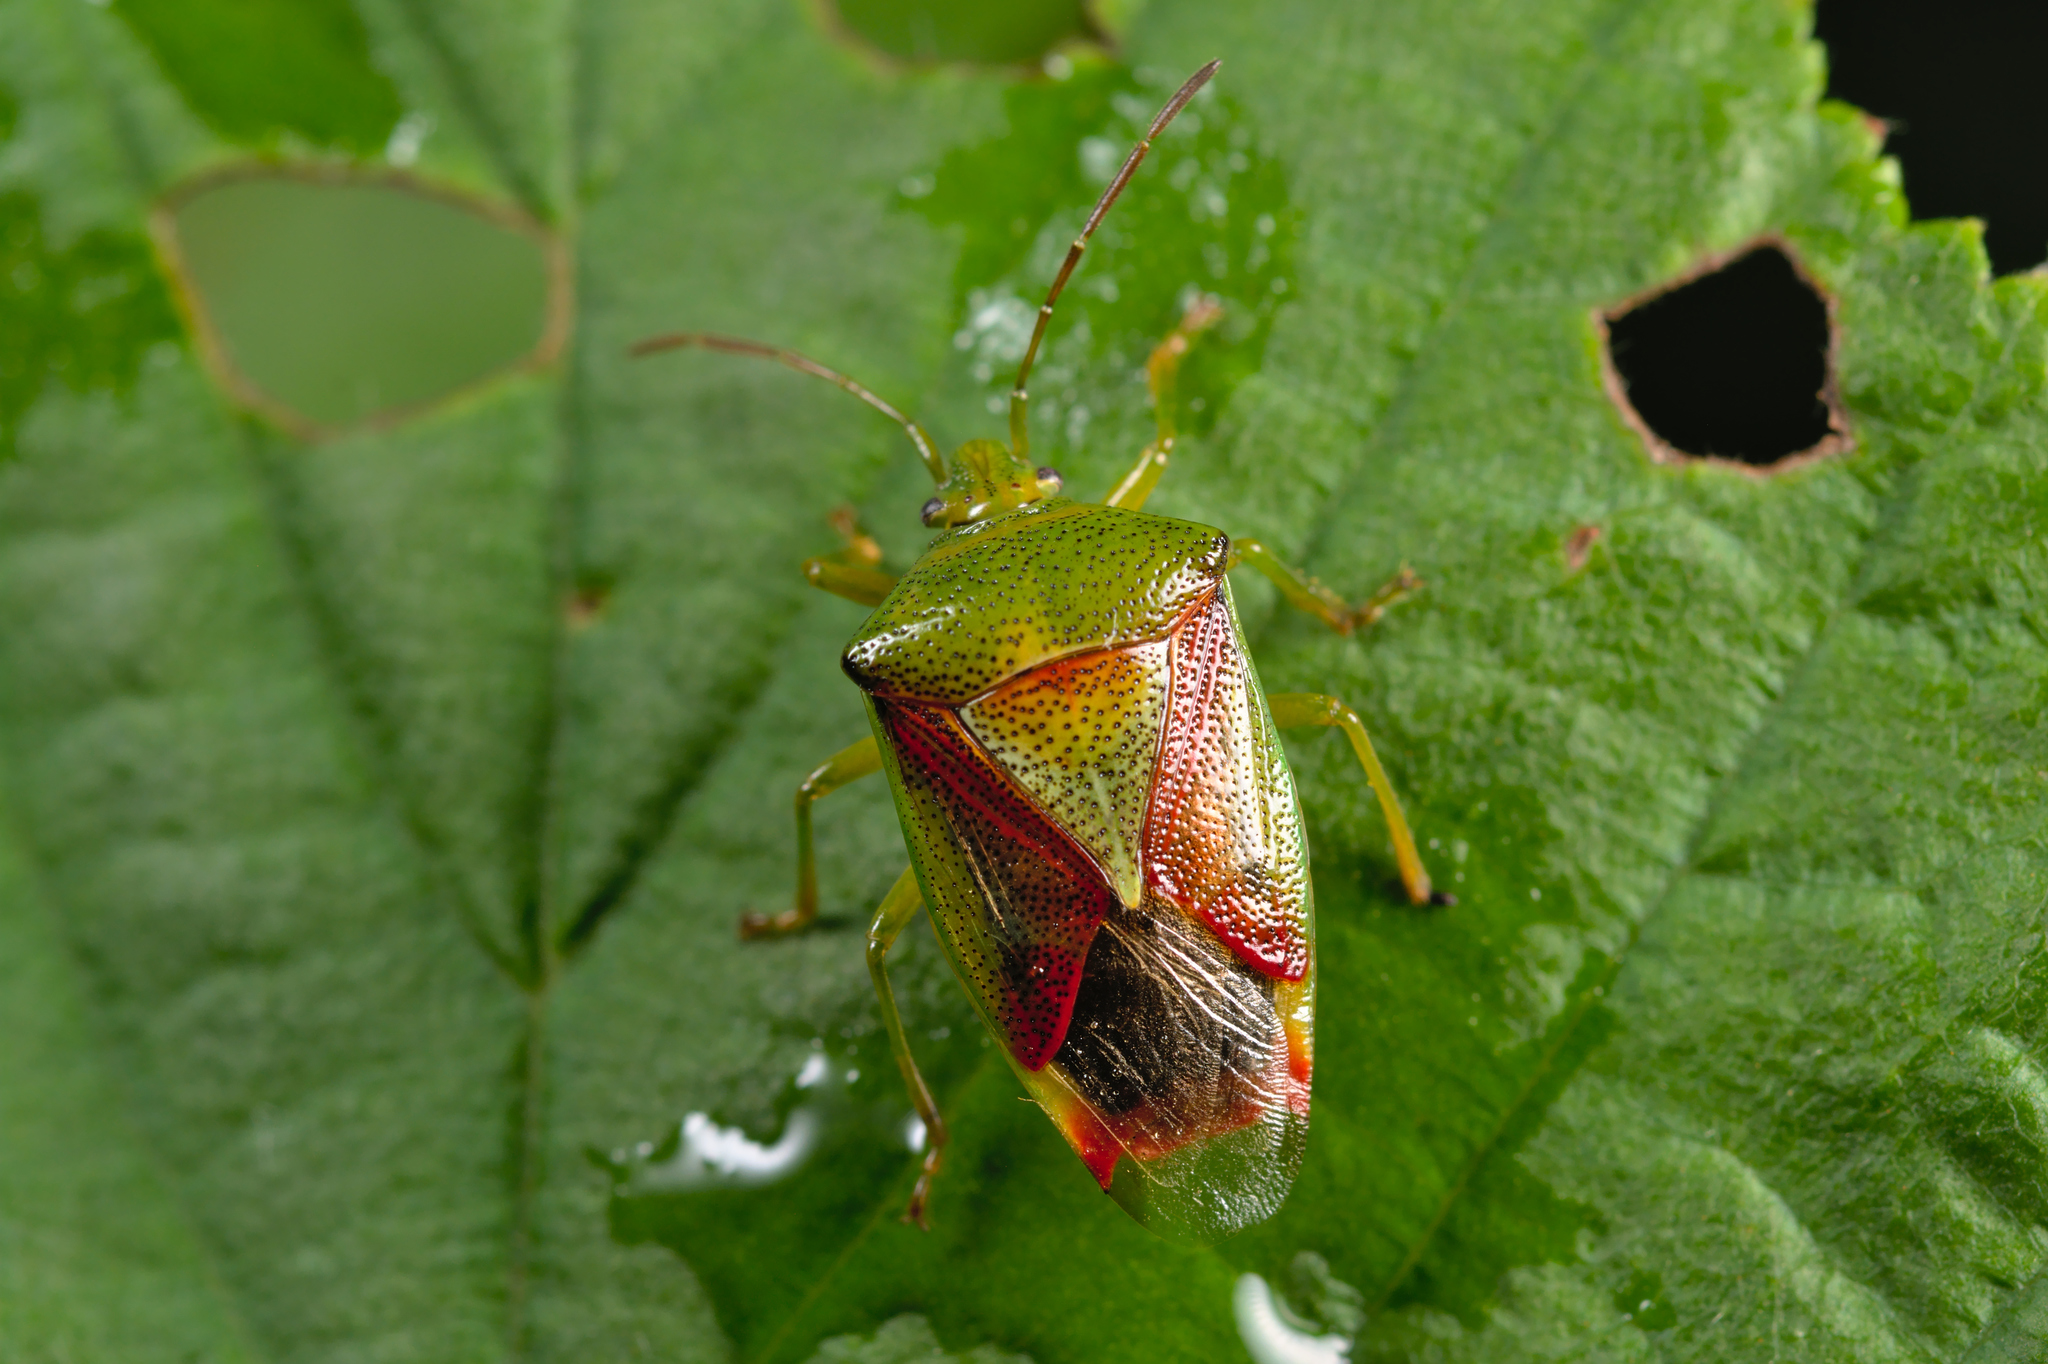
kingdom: Animalia
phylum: Arthropoda
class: Insecta
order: Hemiptera
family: Acanthosomatidae
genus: Elasmostethus
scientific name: Elasmostethus interstinctus
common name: Birch shieldbug
